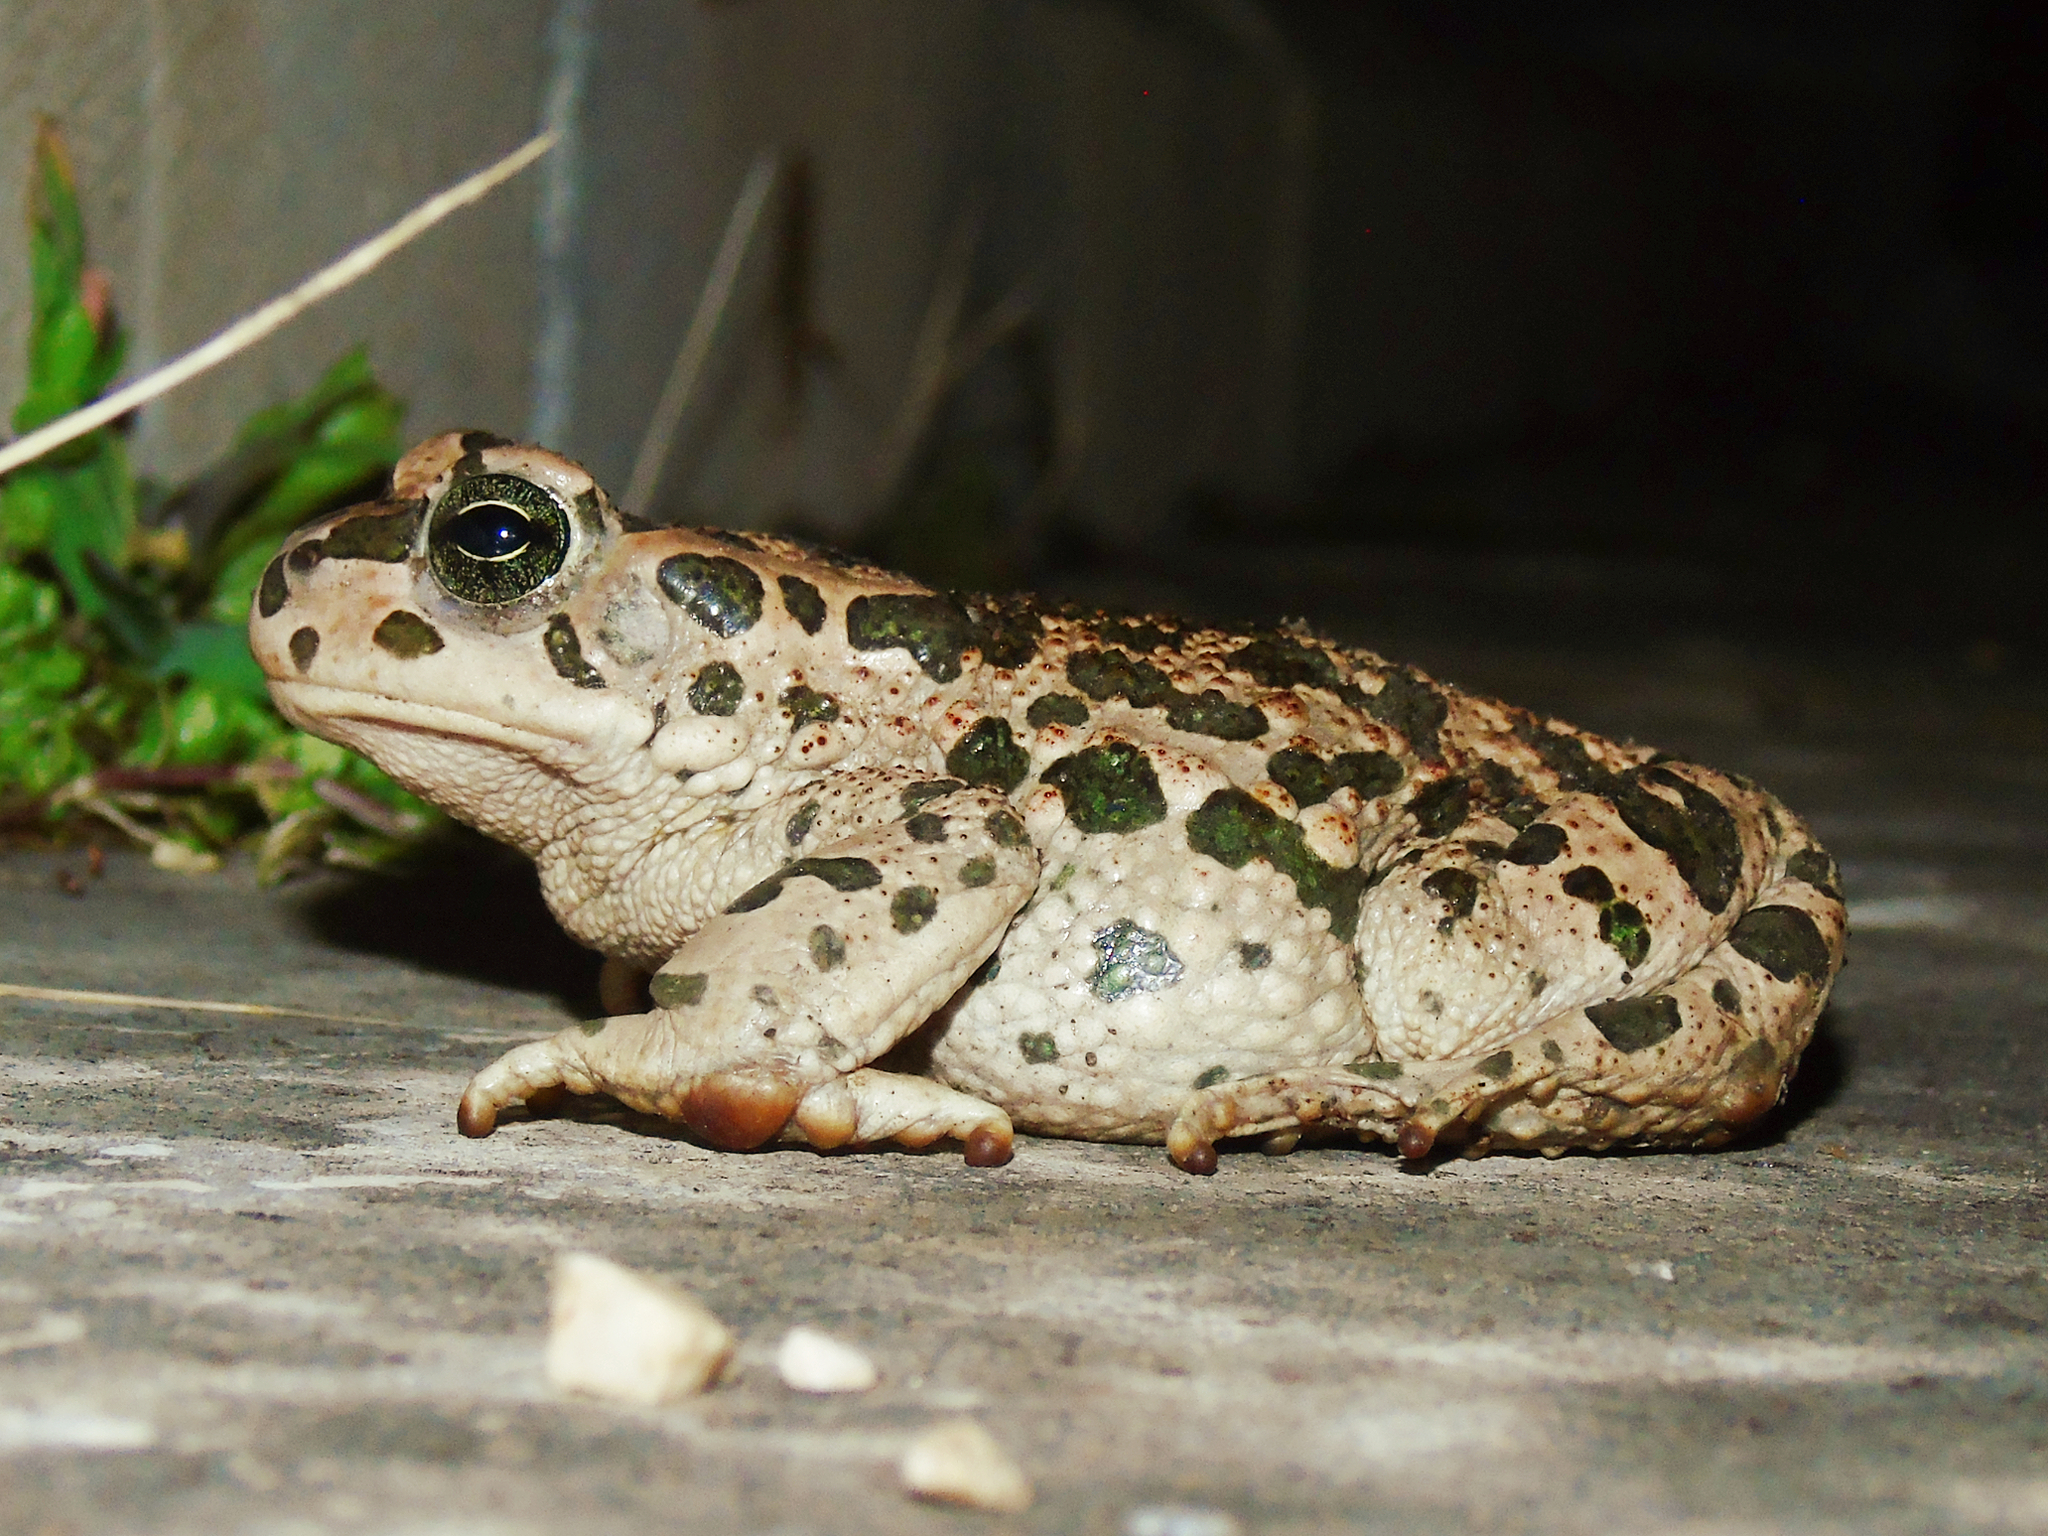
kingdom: Animalia
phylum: Chordata
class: Amphibia
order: Anura
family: Bufonidae
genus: Bufotes
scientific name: Bufotes viridis
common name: European green toad
